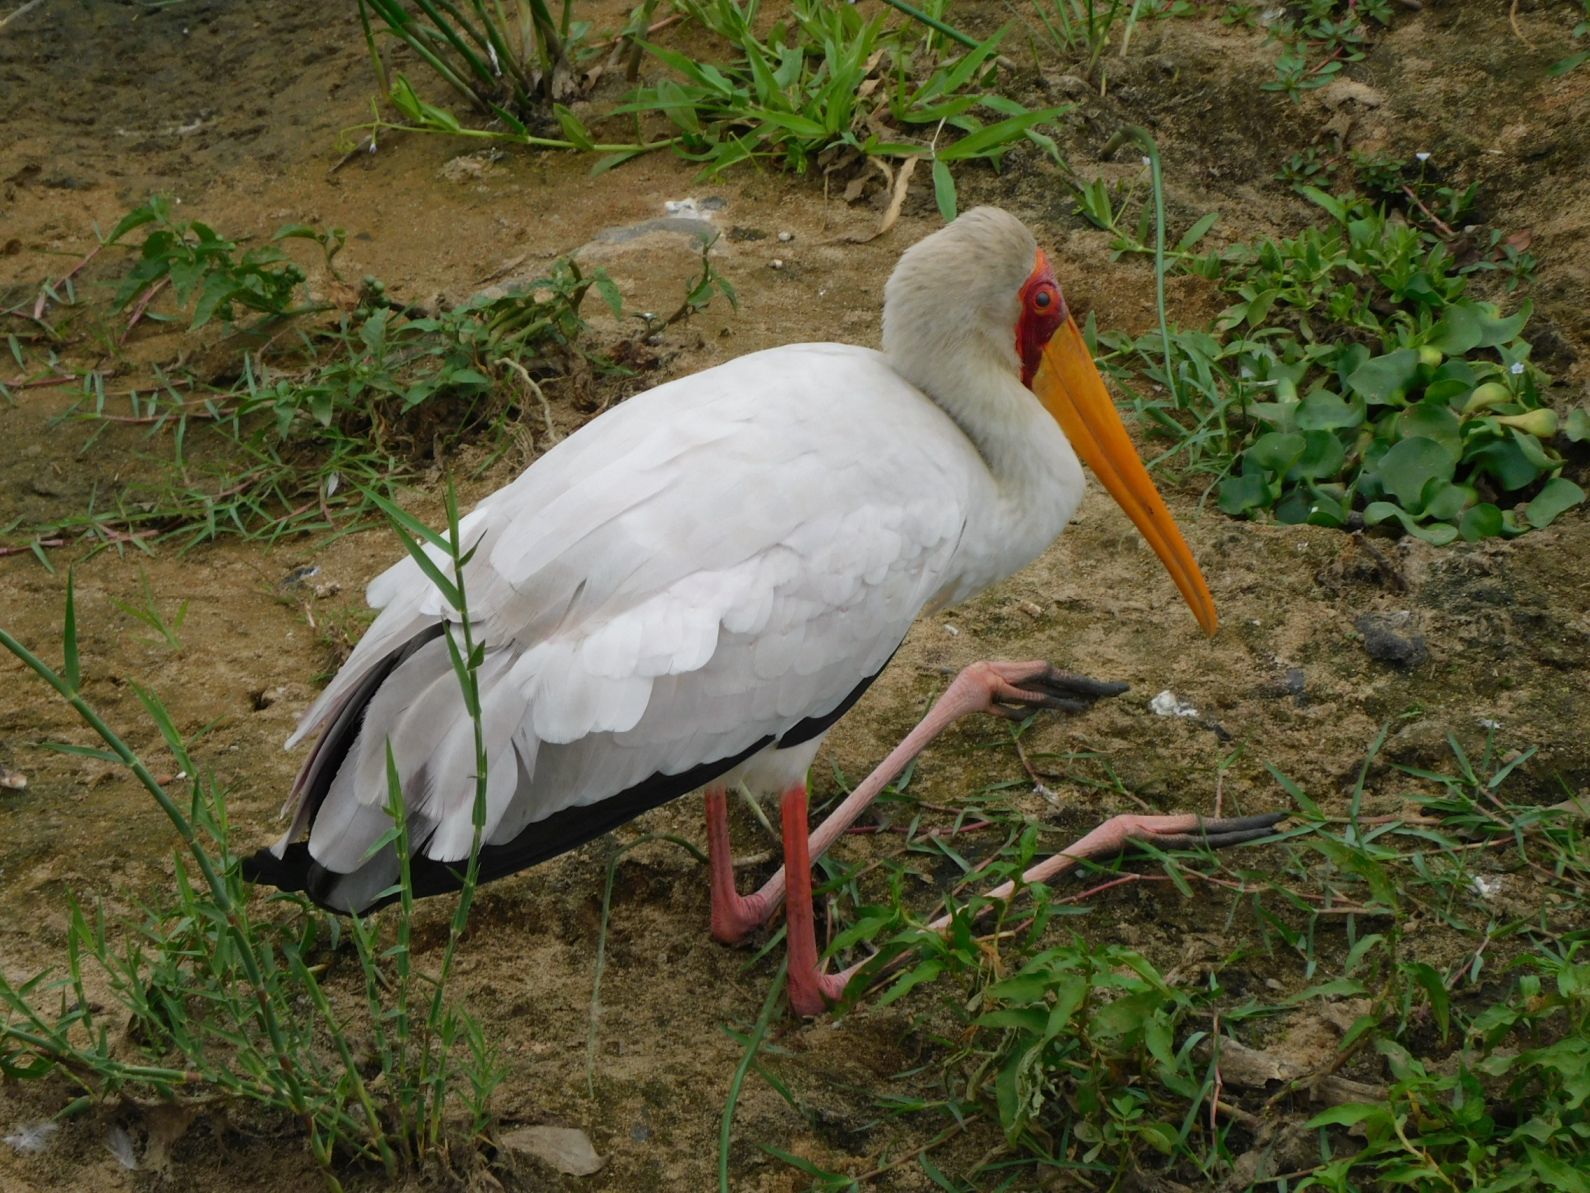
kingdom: Animalia
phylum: Chordata
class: Aves
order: Ciconiiformes
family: Ciconiidae
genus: Mycteria
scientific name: Mycteria ibis
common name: Yellow-billed stork
